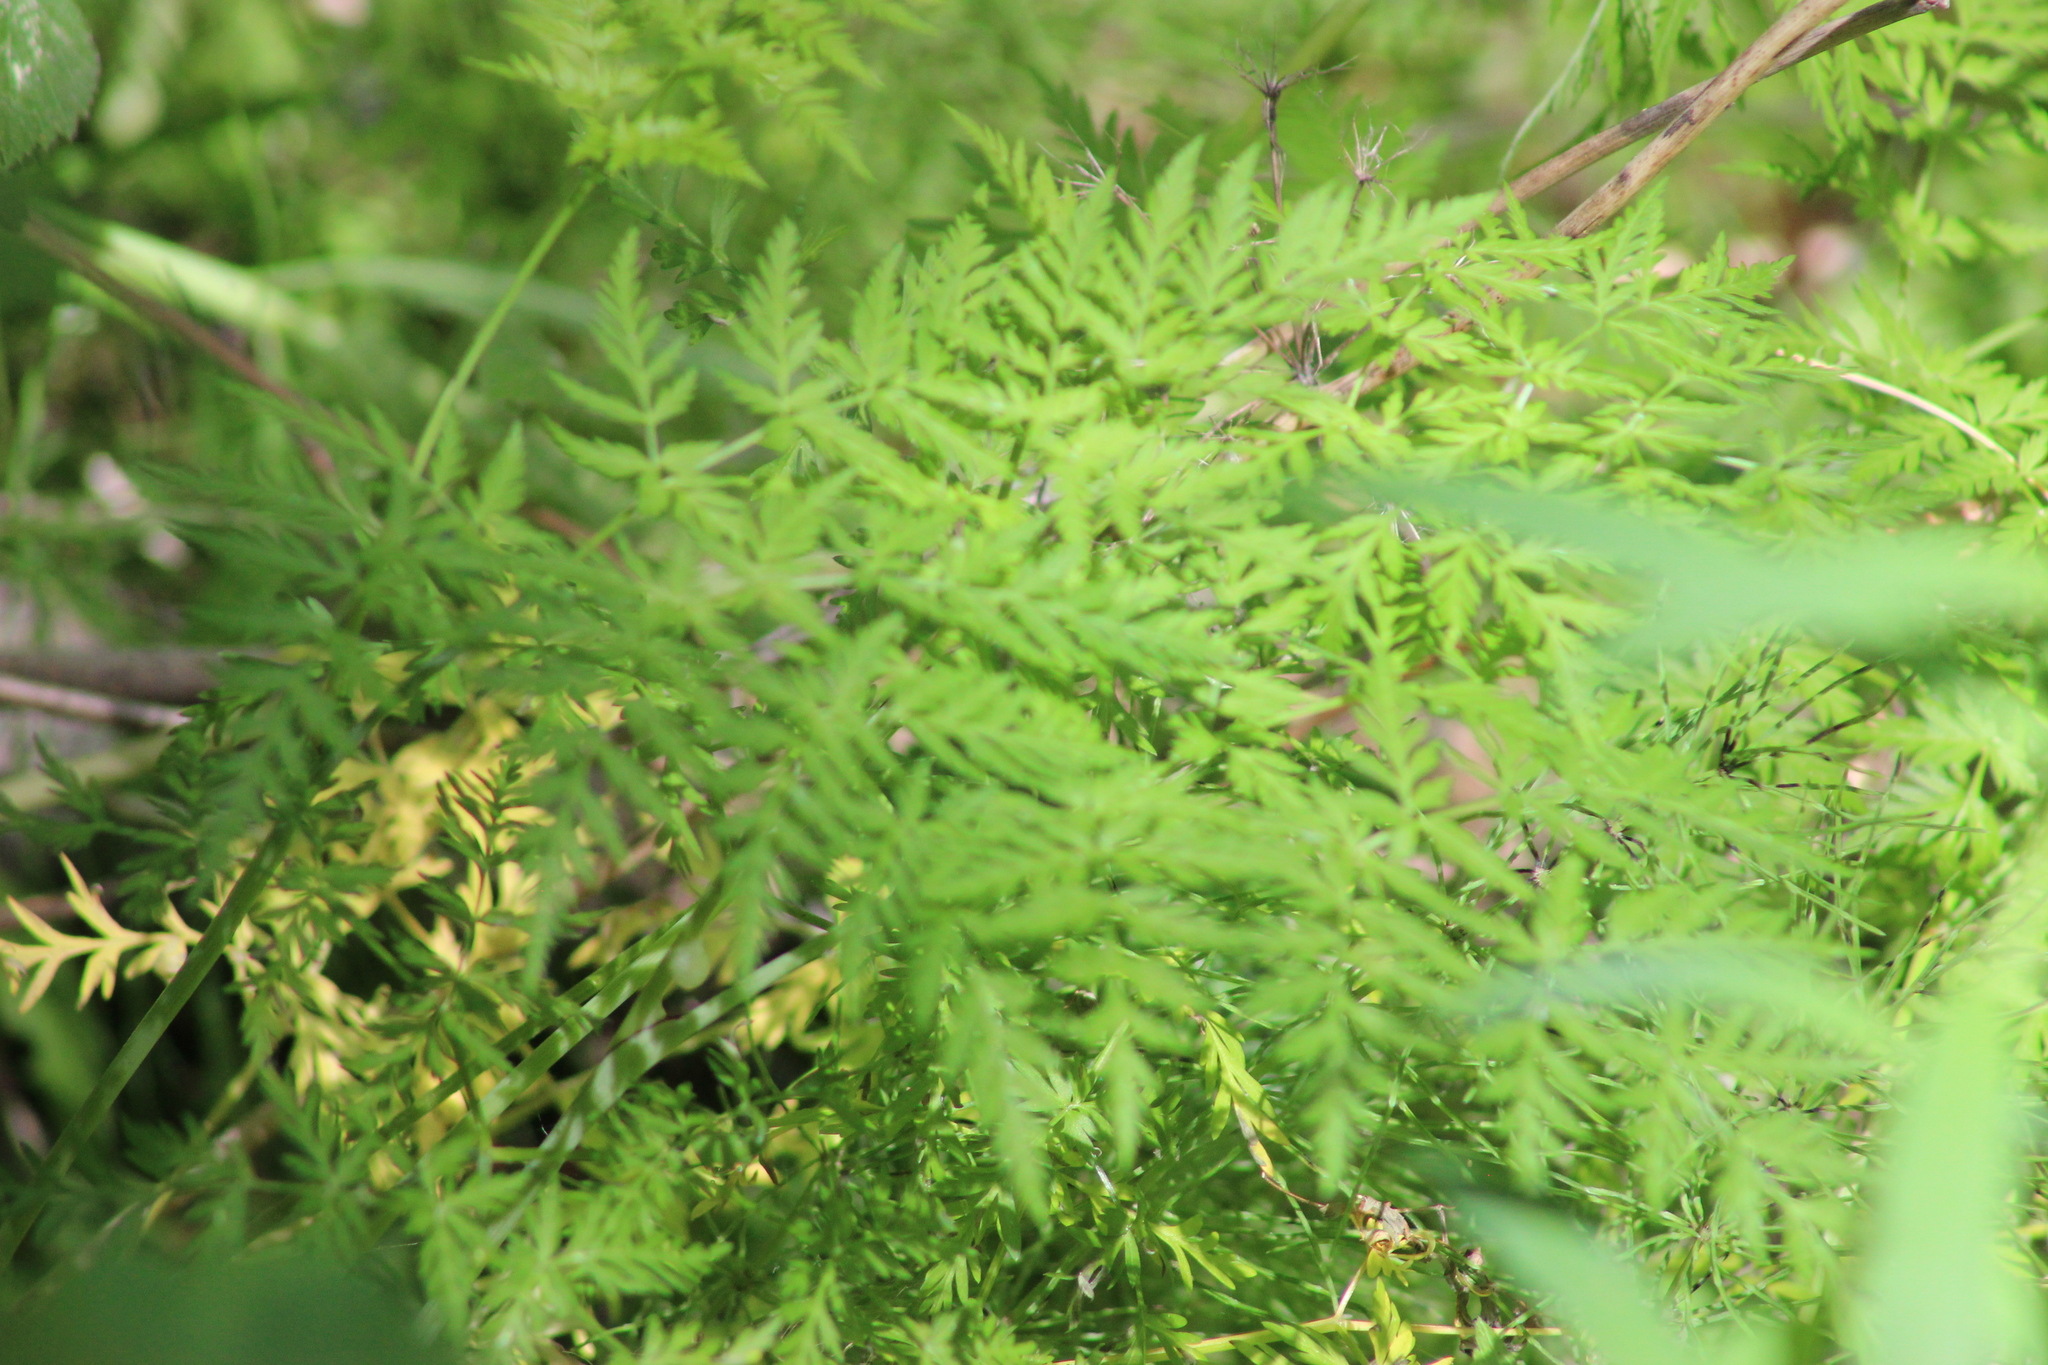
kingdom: Plantae
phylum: Tracheophyta
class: Magnoliopsida
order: Apiales
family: Apiaceae
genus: Anthriscus
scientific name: Anthriscus sylvestris
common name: Cow parsley
